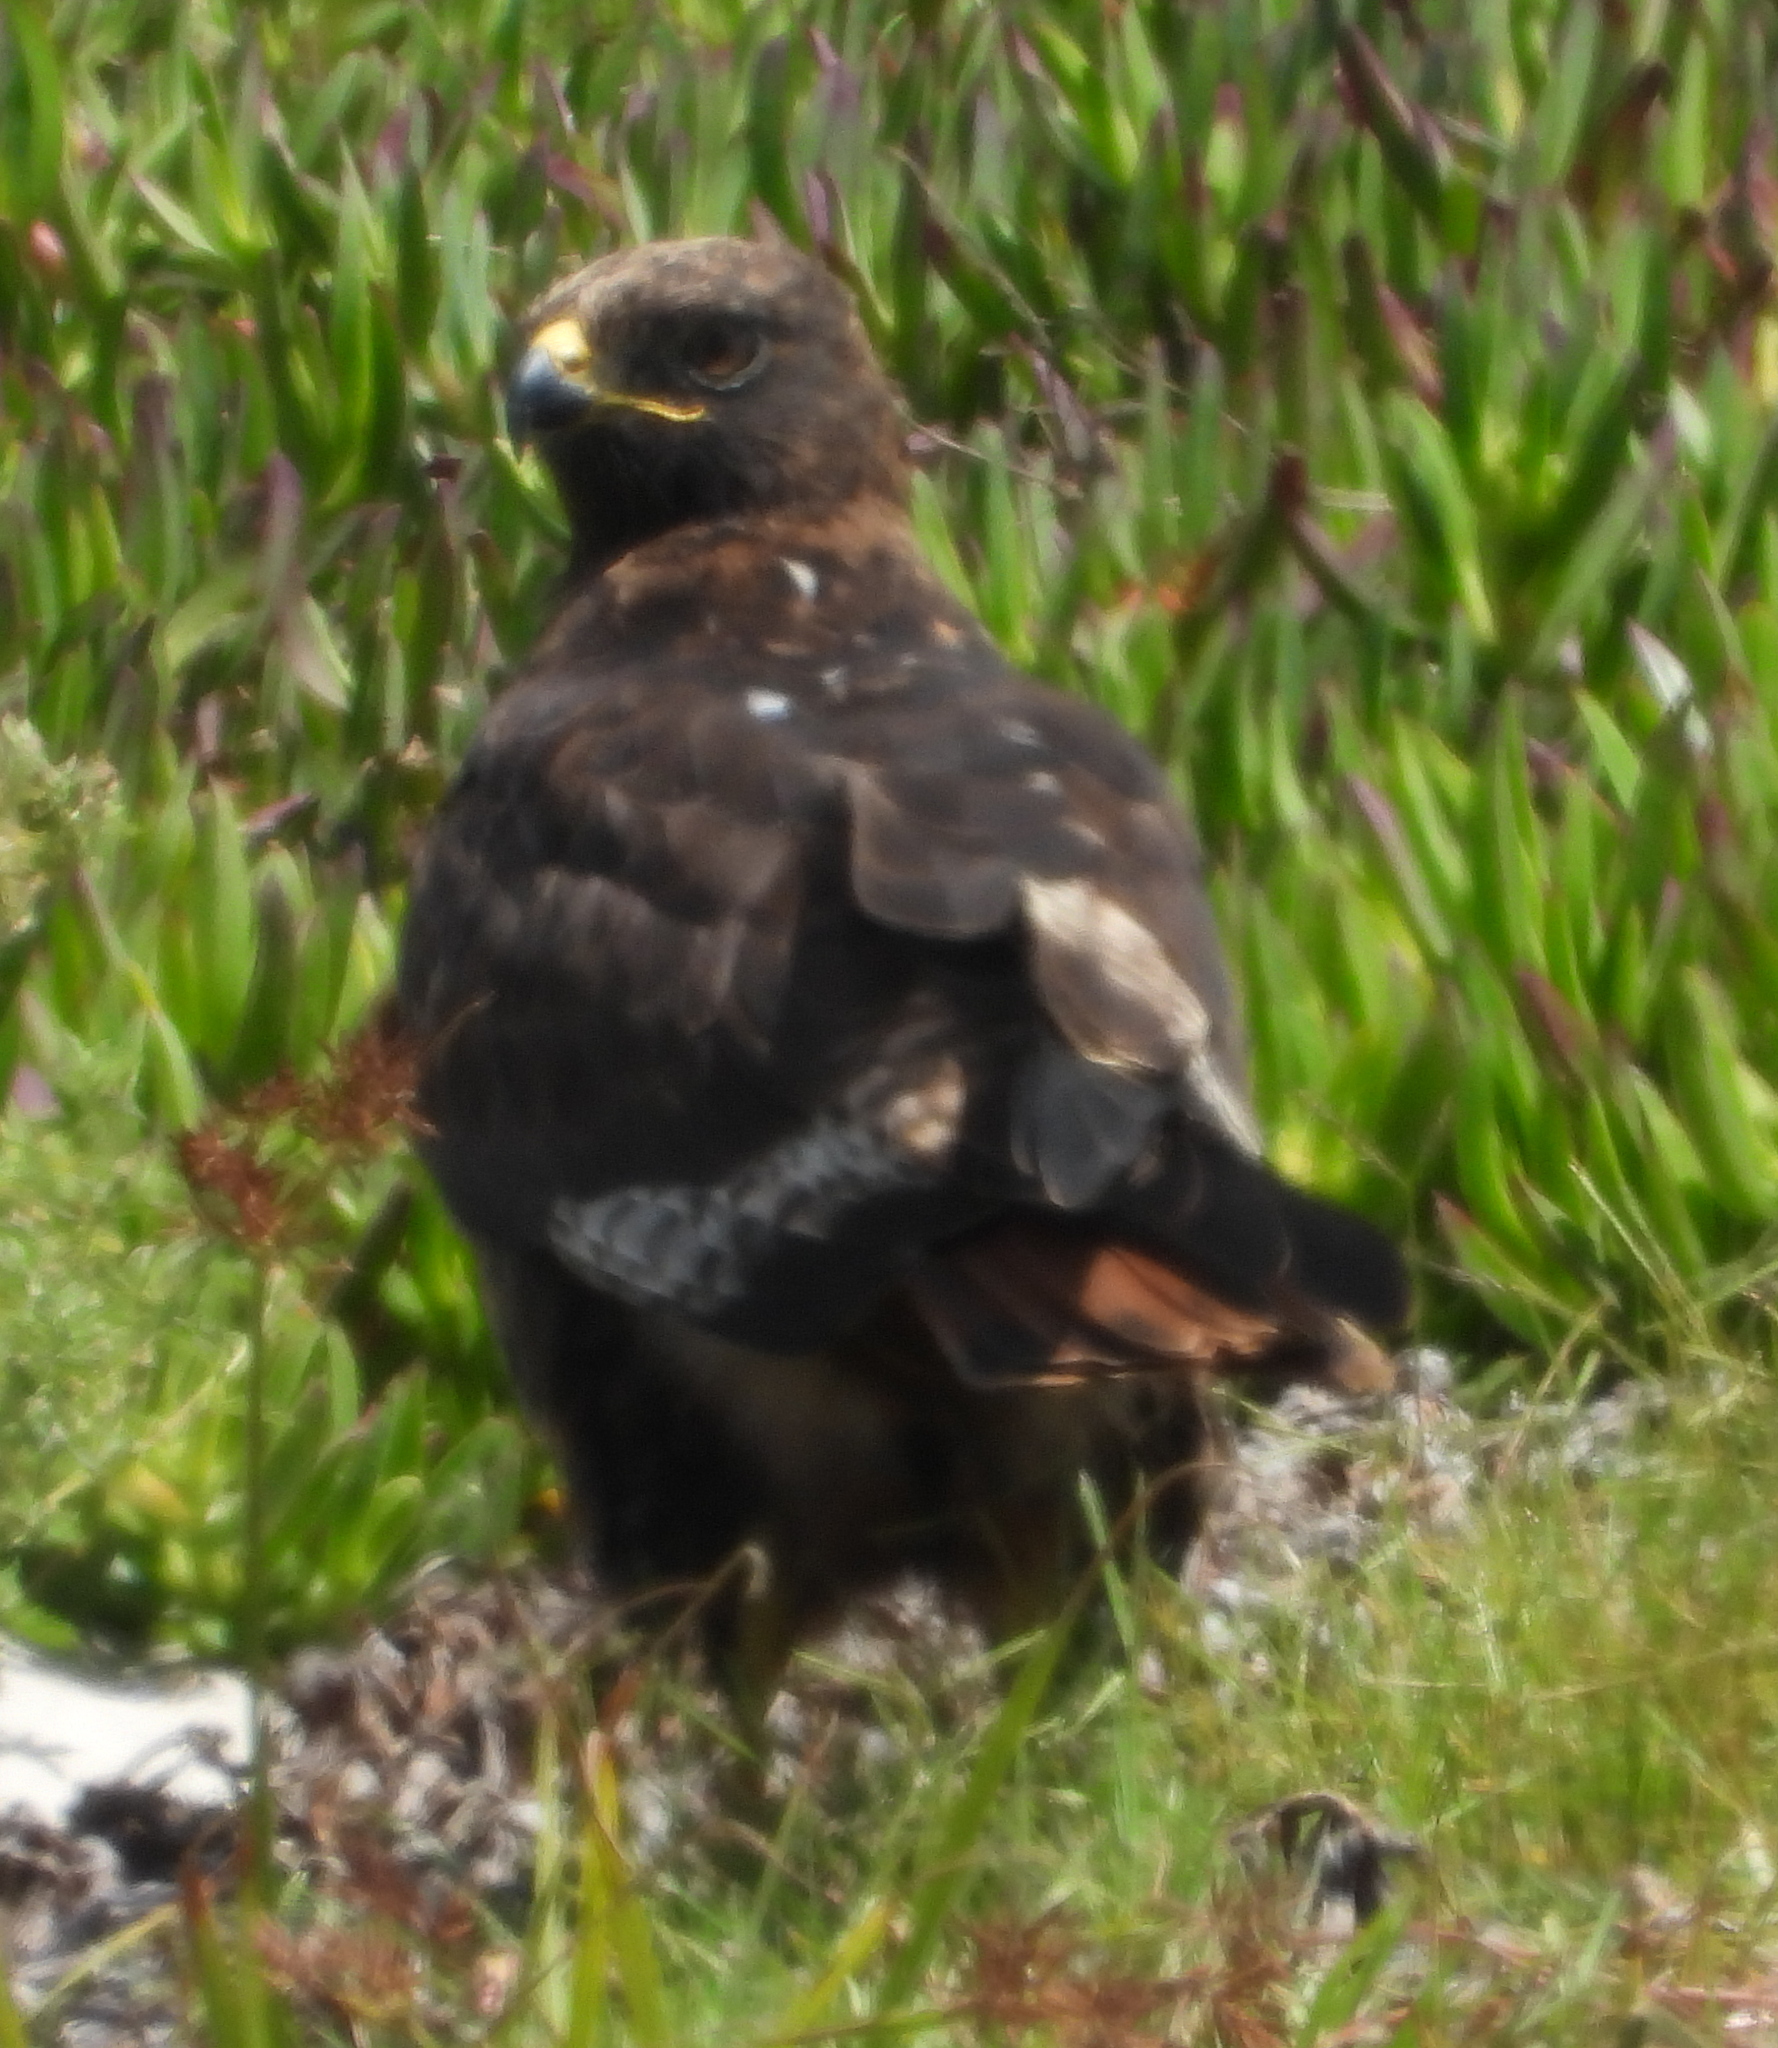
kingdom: Animalia
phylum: Chordata
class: Aves
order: Accipitriformes
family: Accipitridae
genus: Buteo
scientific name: Buteo rufofuscus
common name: Jackal buzzard
